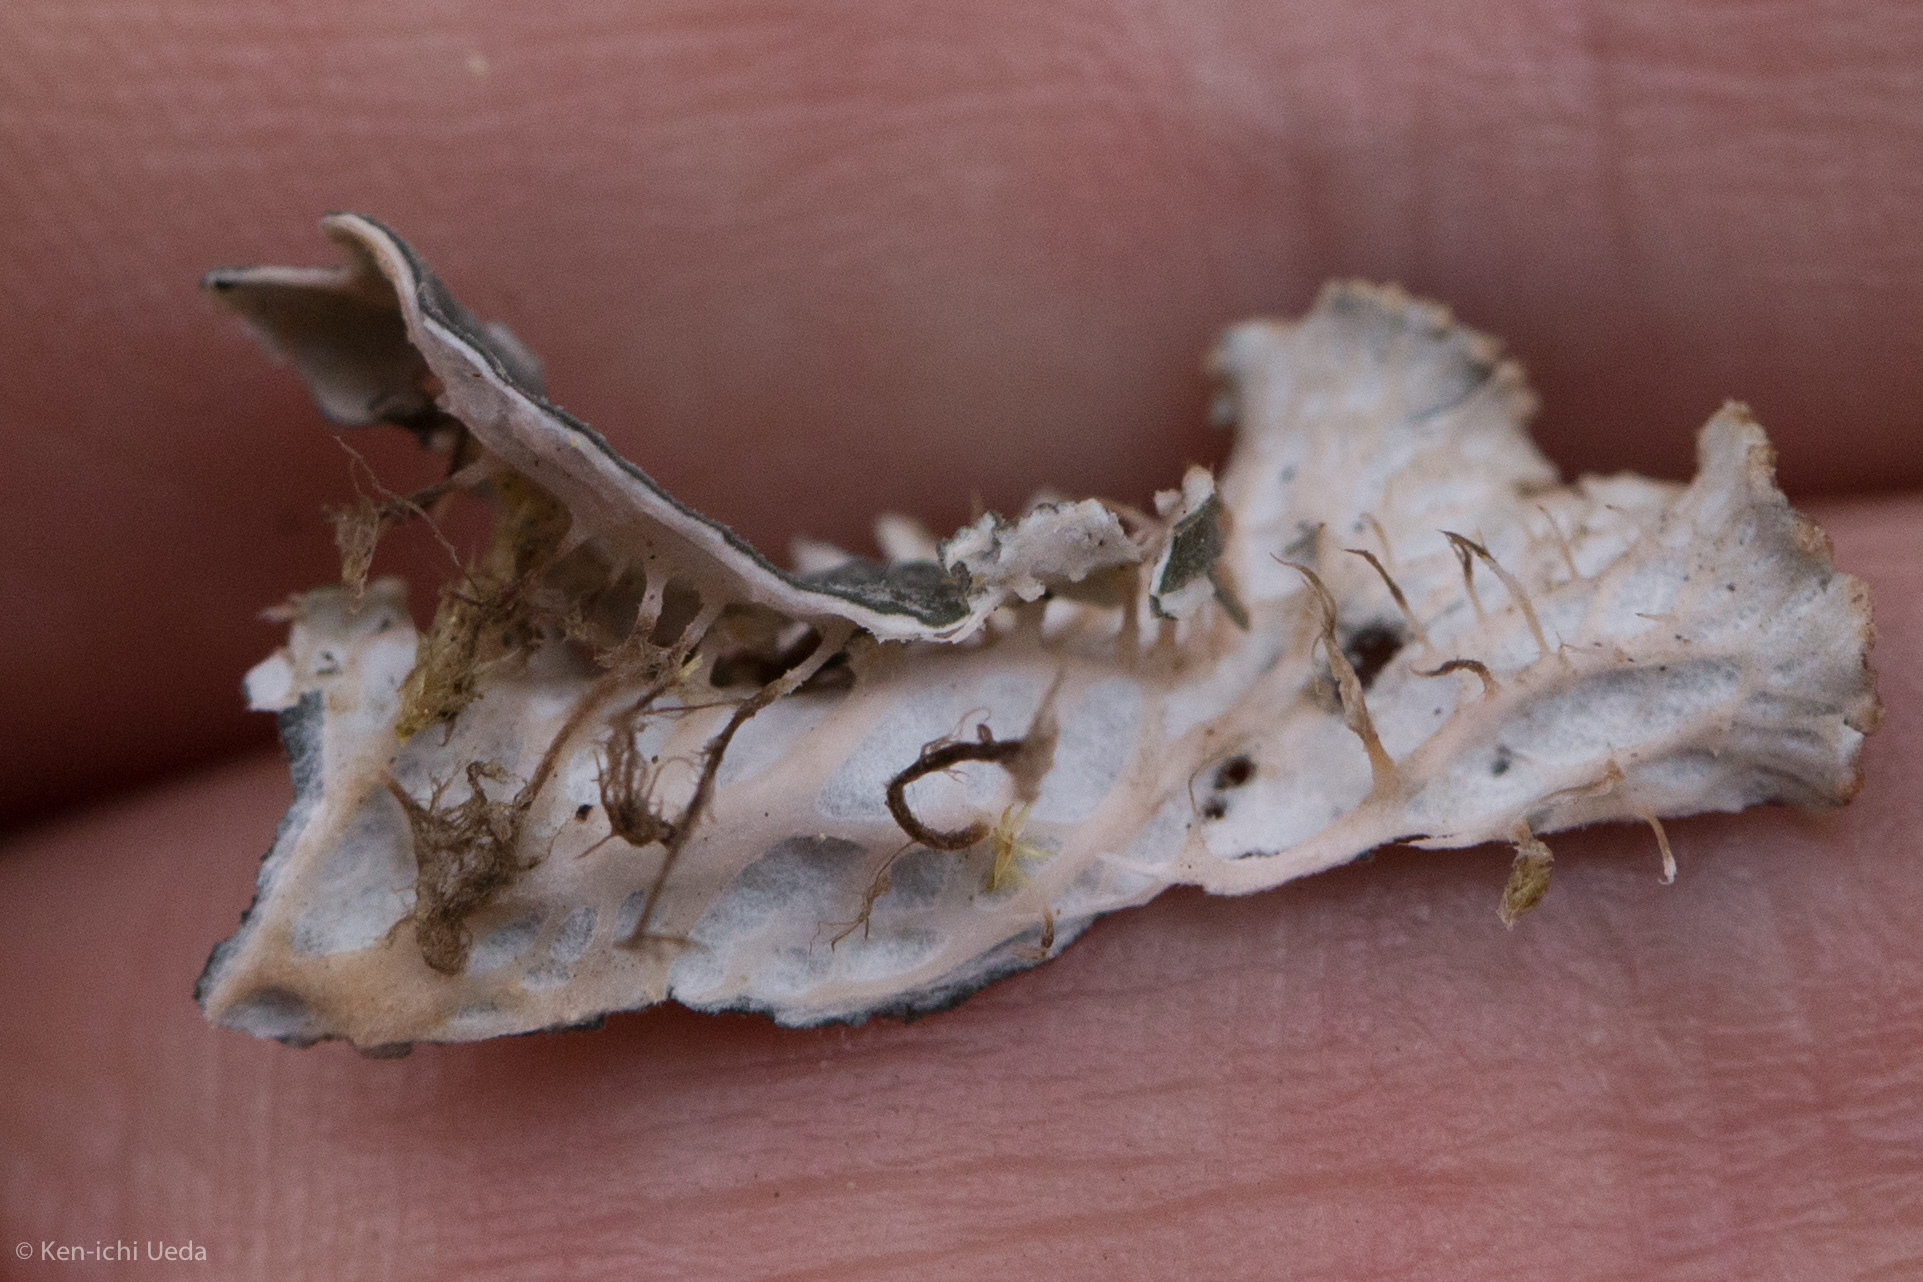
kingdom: Fungi
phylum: Ascomycota
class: Lecanoromycetes
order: Peltigerales
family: Peltigeraceae
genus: Peltigera
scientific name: Peltigera canina
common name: Dog pelt lichen
